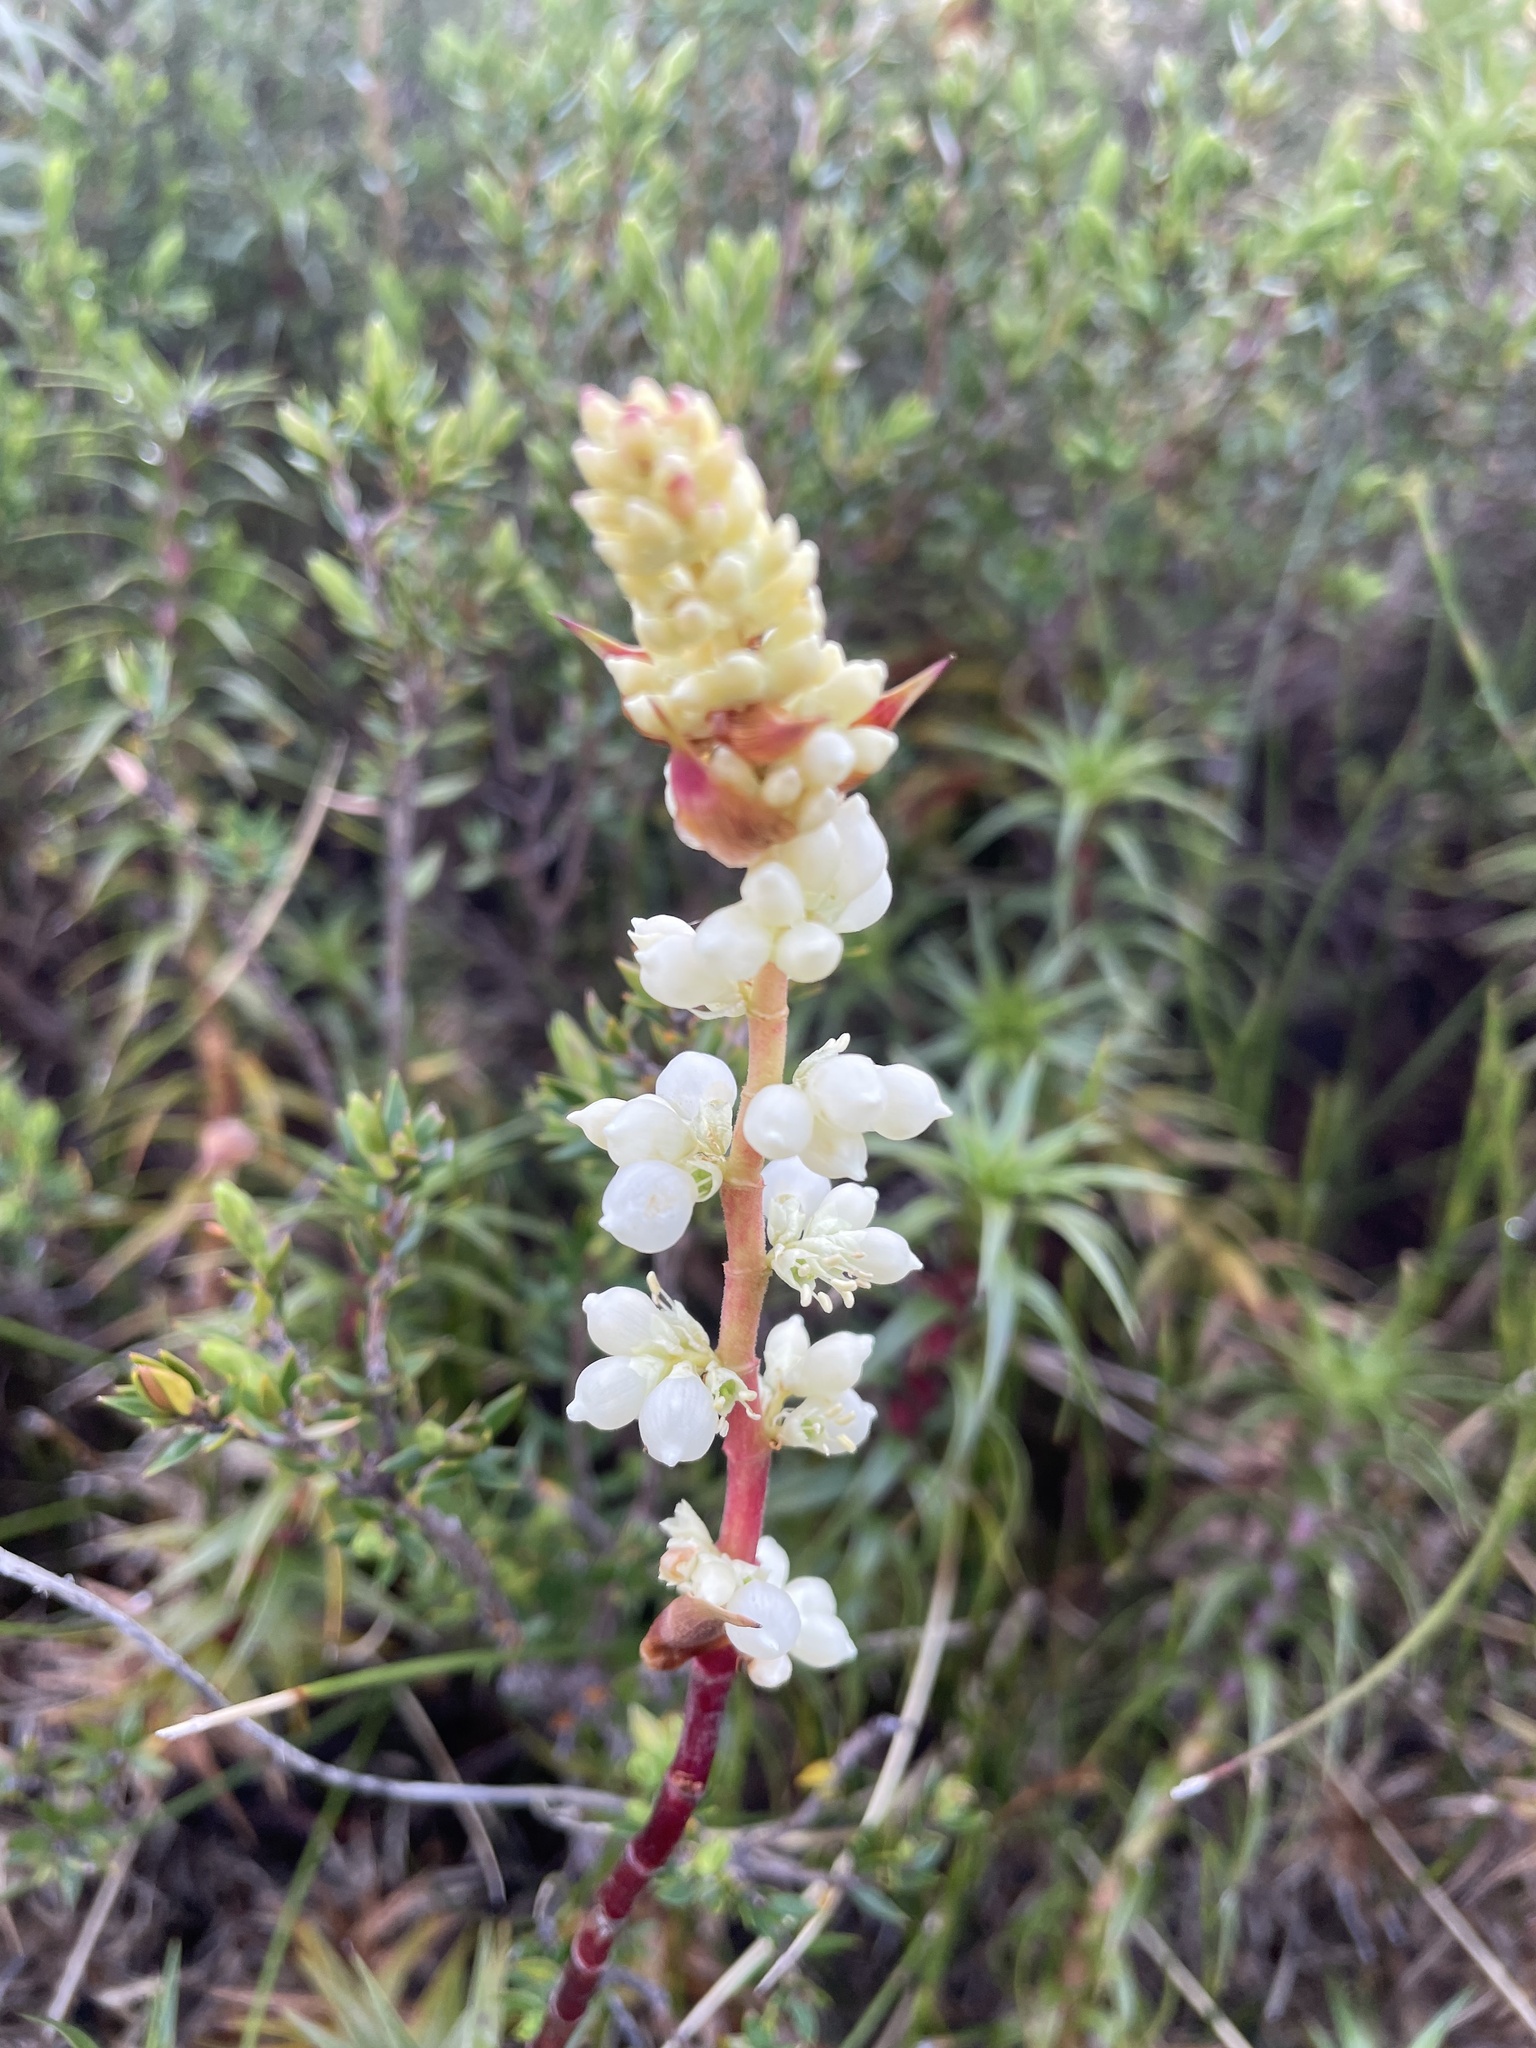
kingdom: Plantae
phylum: Tracheophyta
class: Magnoliopsida
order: Ericales
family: Ericaceae
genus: Dracophyllum
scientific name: Dracophyllum continentis
